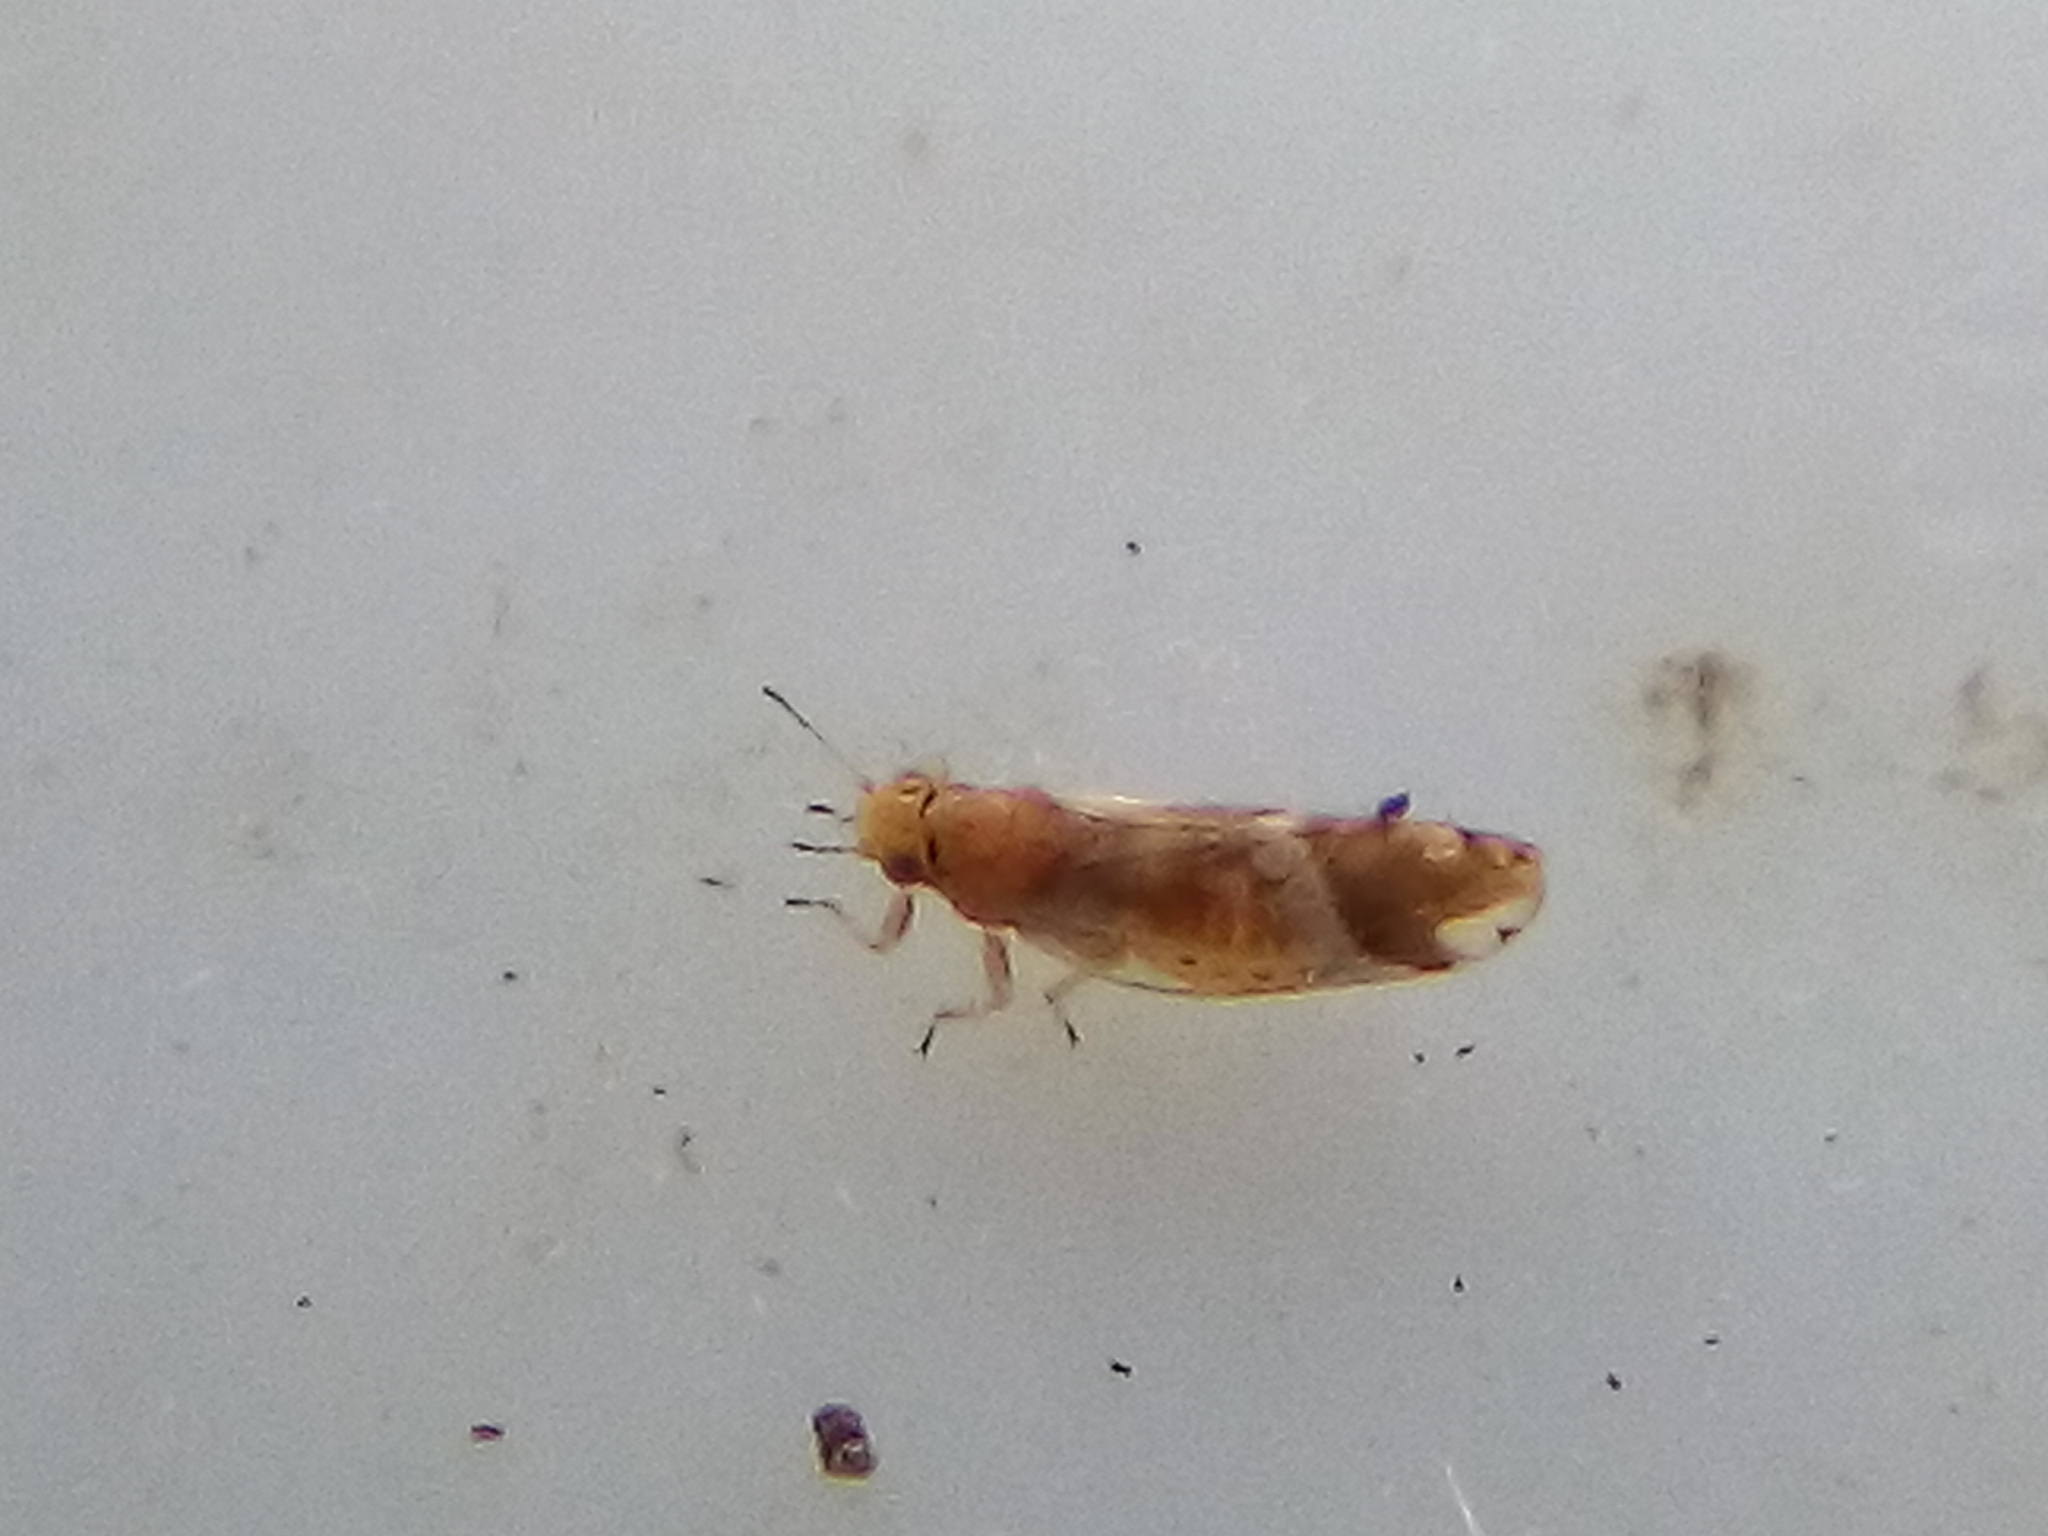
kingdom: Animalia
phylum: Arthropoda
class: Insecta
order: Hemiptera
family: Triozidae
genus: Casuarinicola
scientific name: Casuarinicola nigrimaculatus
